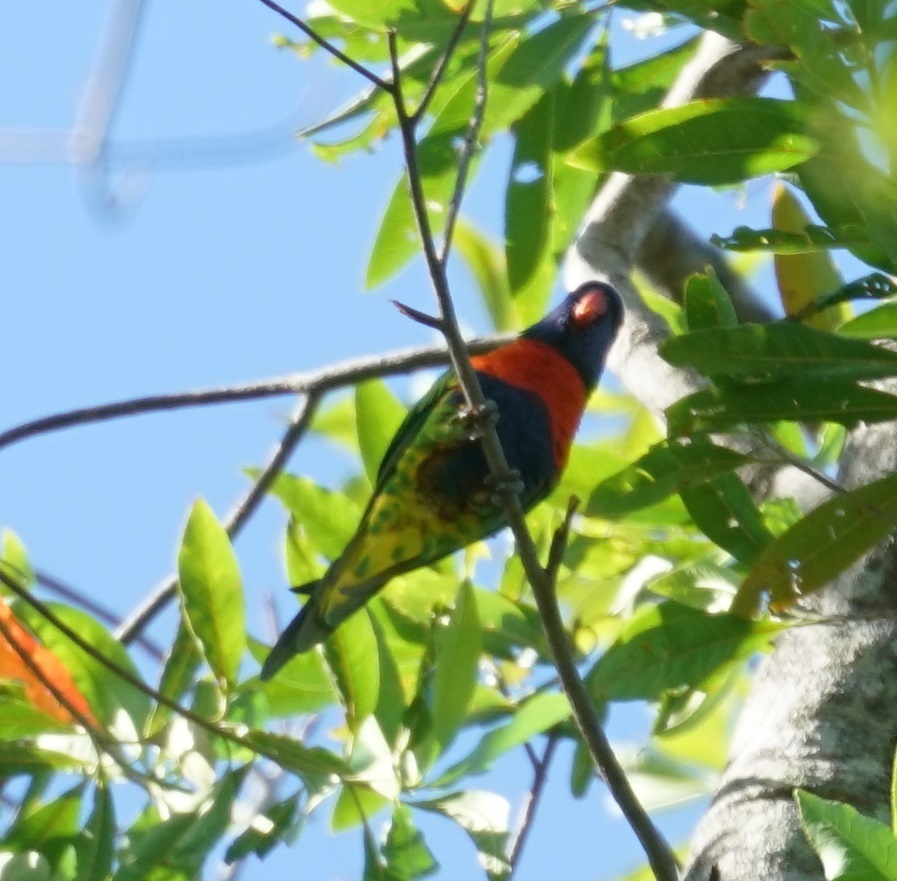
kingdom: Animalia
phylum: Chordata
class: Aves
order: Psittaciformes
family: Psittacidae
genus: Trichoglossus
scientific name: Trichoglossus haematodus
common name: Coconut lorikeet
